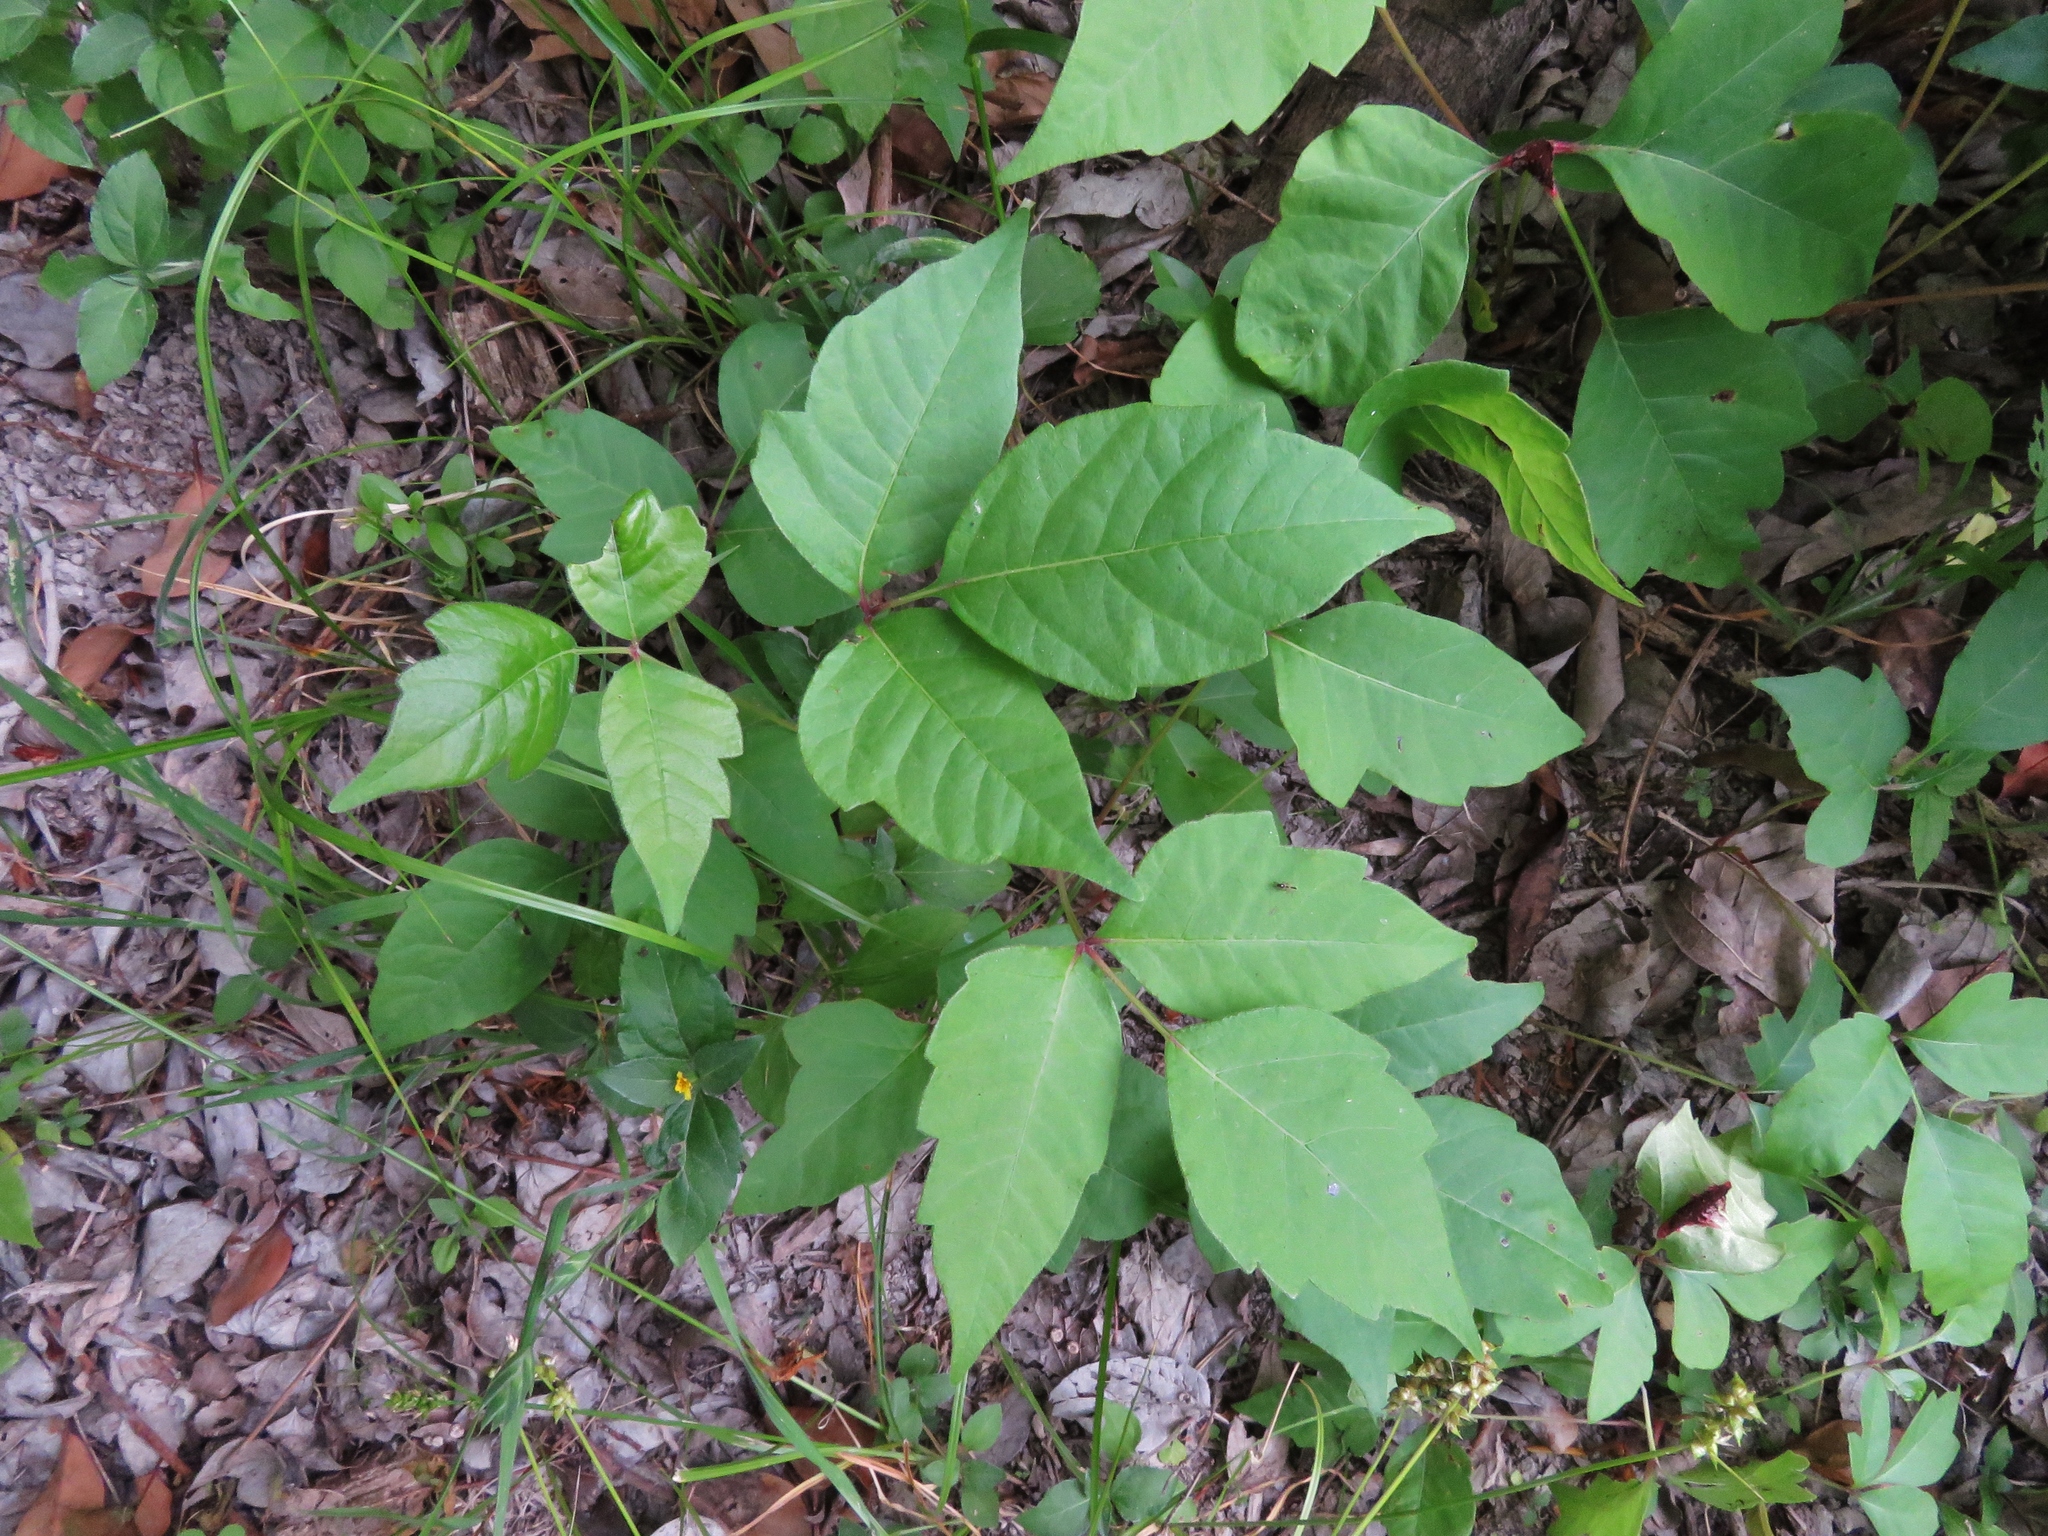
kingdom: Plantae
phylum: Tracheophyta
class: Magnoliopsida
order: Sapindales
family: Anacardiaceae
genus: Toxicodendron
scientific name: Toxicodendron radicans
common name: Poison ivy
